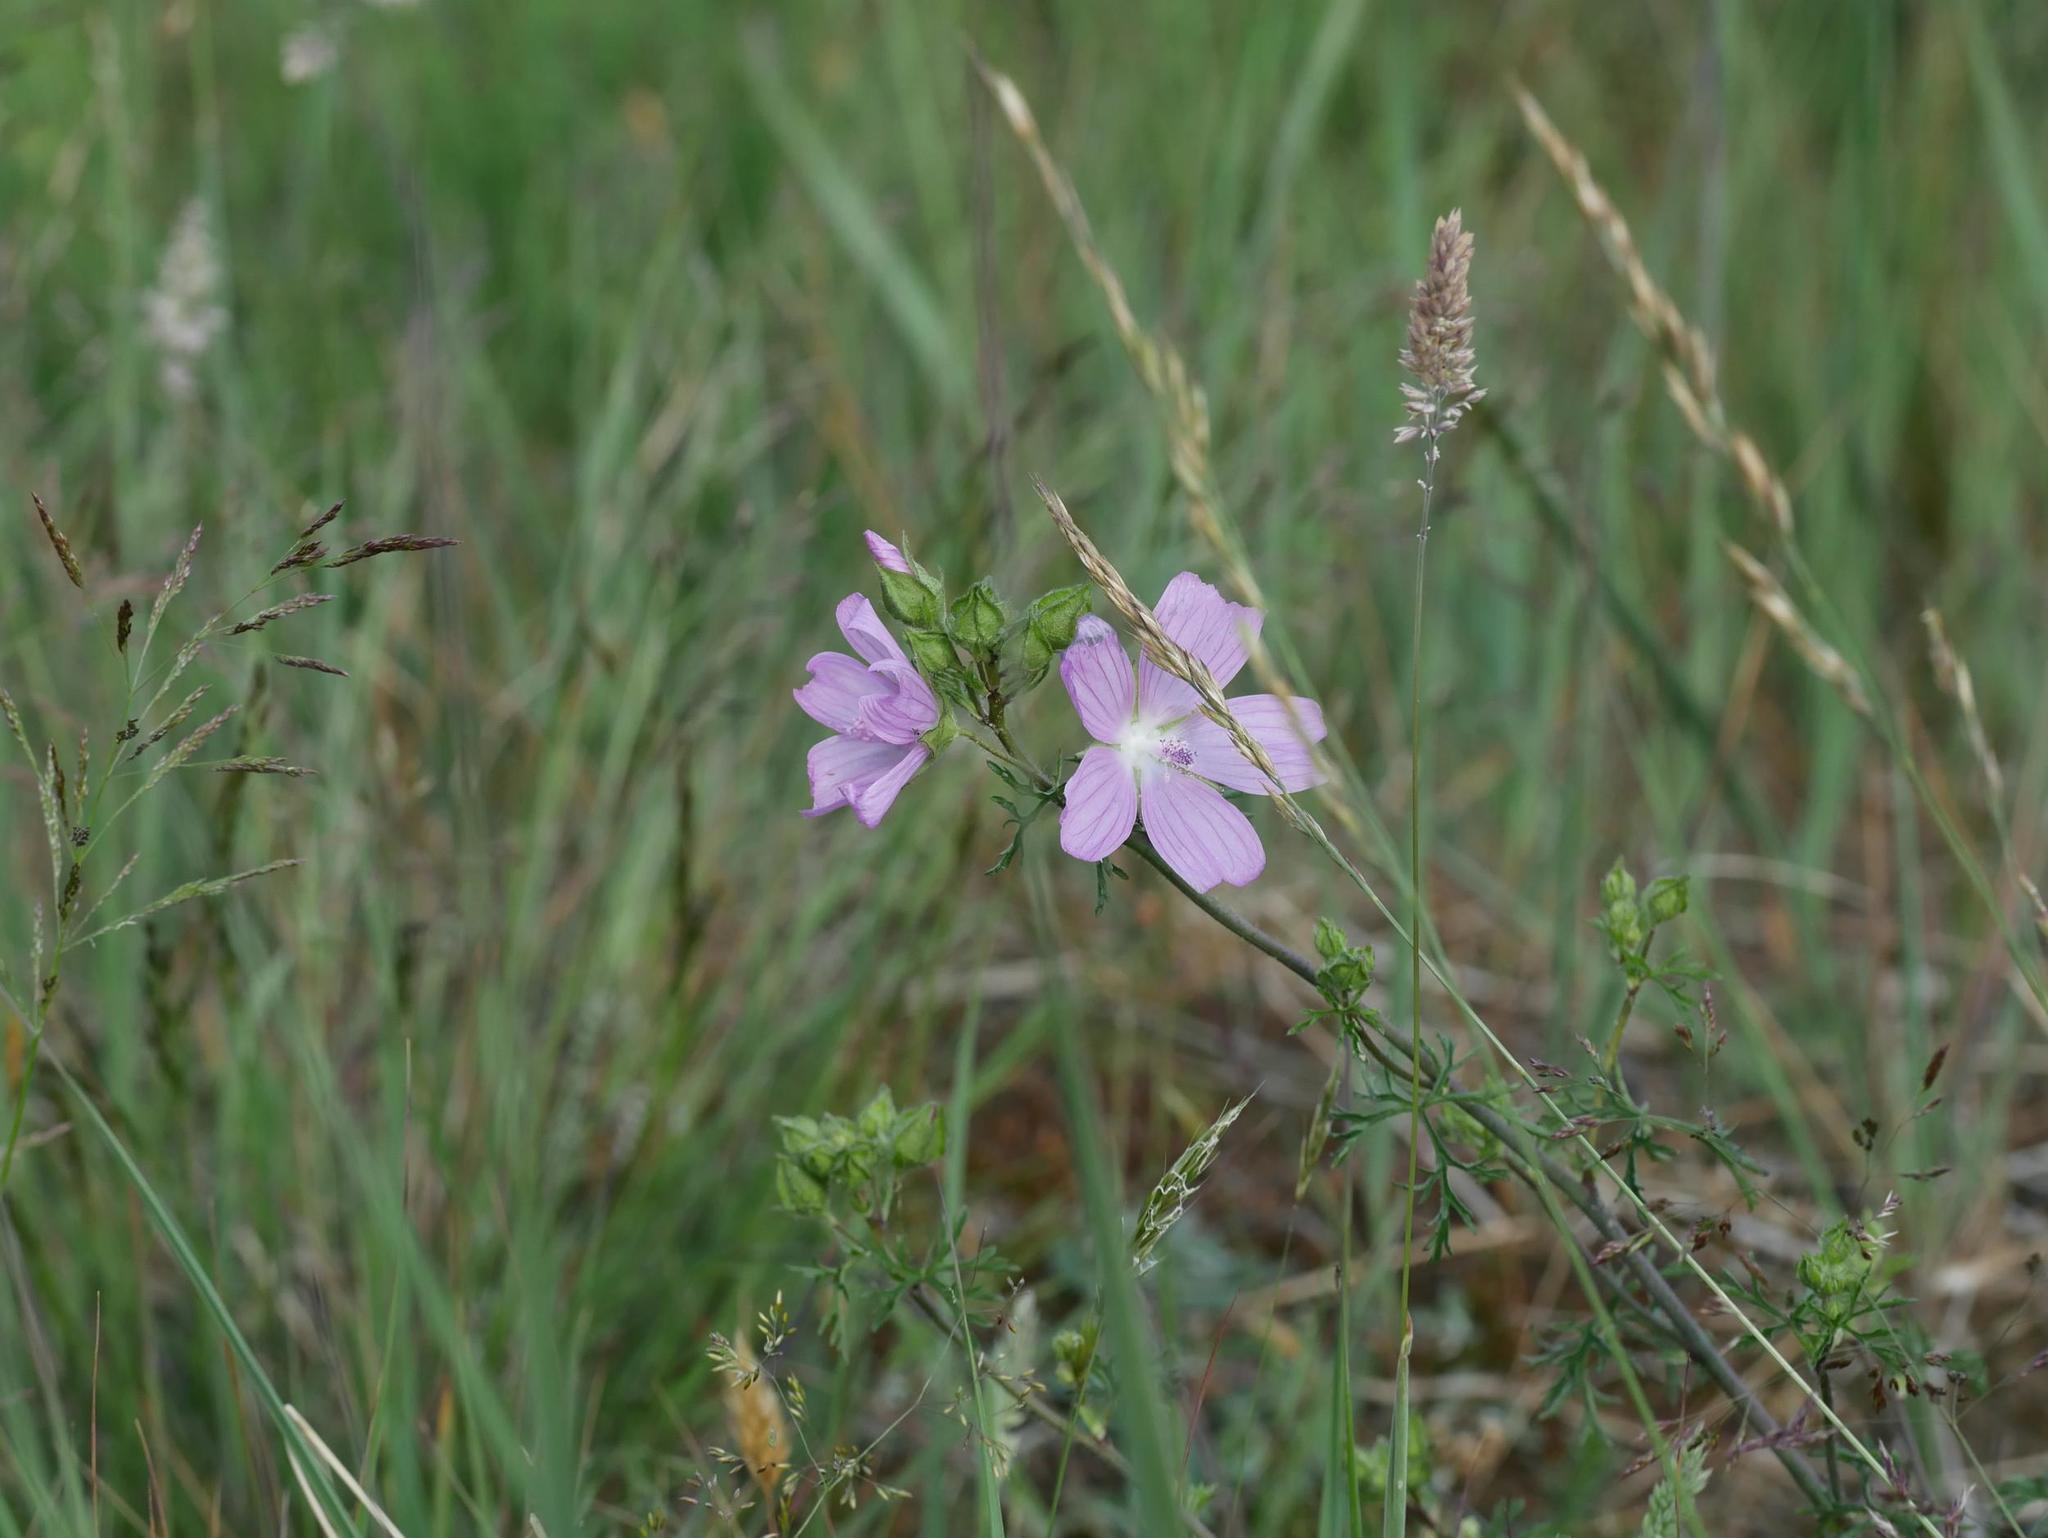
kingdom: Plantae
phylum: Tracheophyta
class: Magnoliopsida
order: Malvales
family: Malvaceae
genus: Malva
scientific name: Malva moschata
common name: Musk mallow
